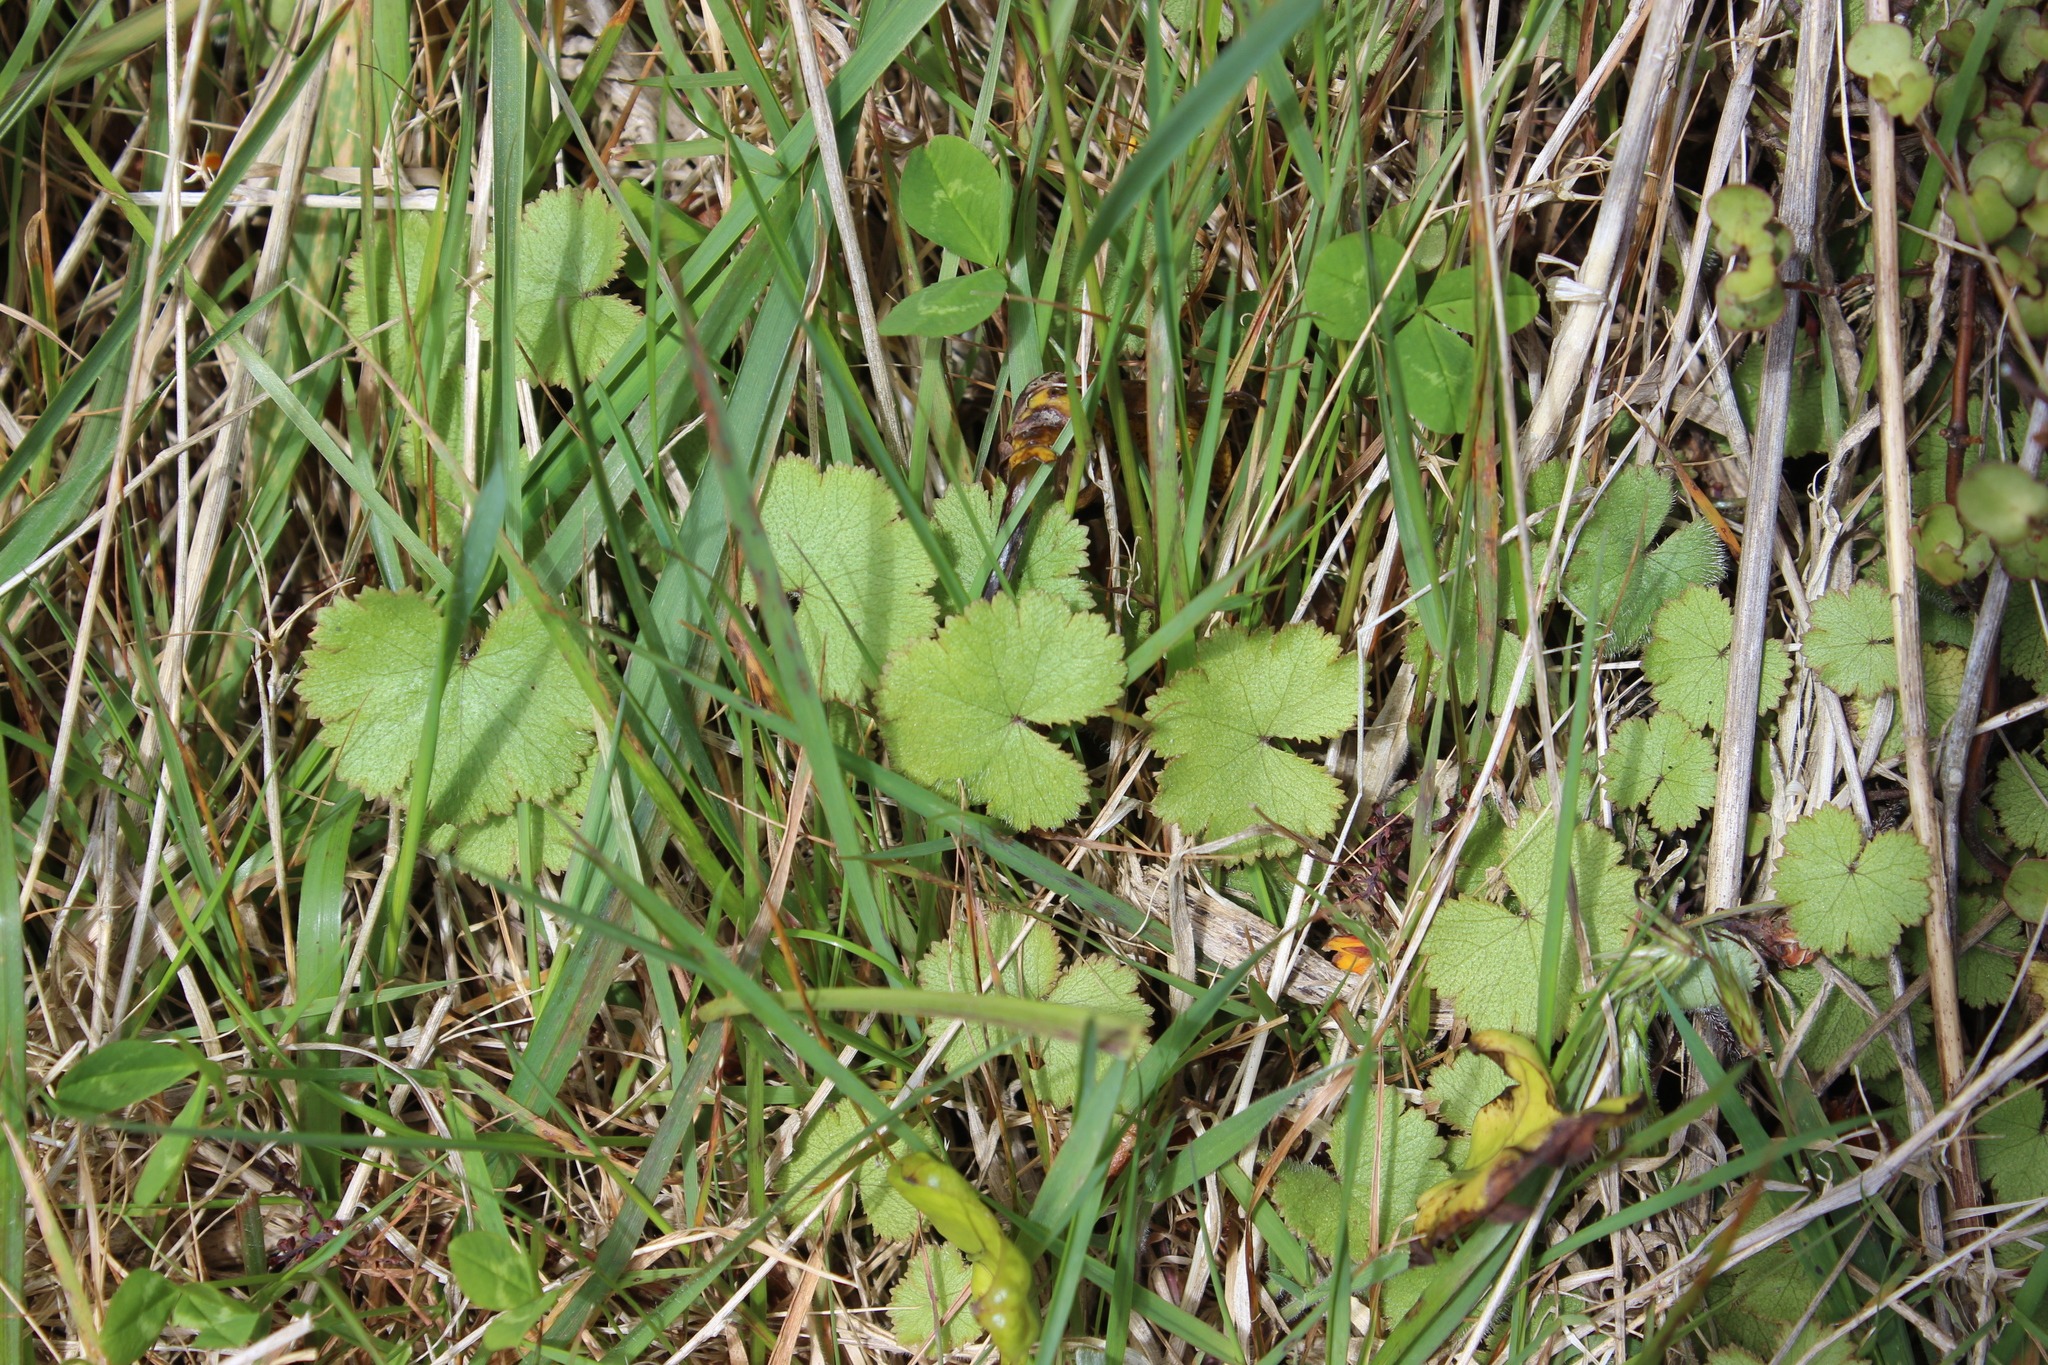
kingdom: Plantae
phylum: Tracheophyta
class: Magnoliopsida
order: Apiales
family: Araliaceae
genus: Hydrocotyle
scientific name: Hydrocotyle moschata
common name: Hairy pennywort
